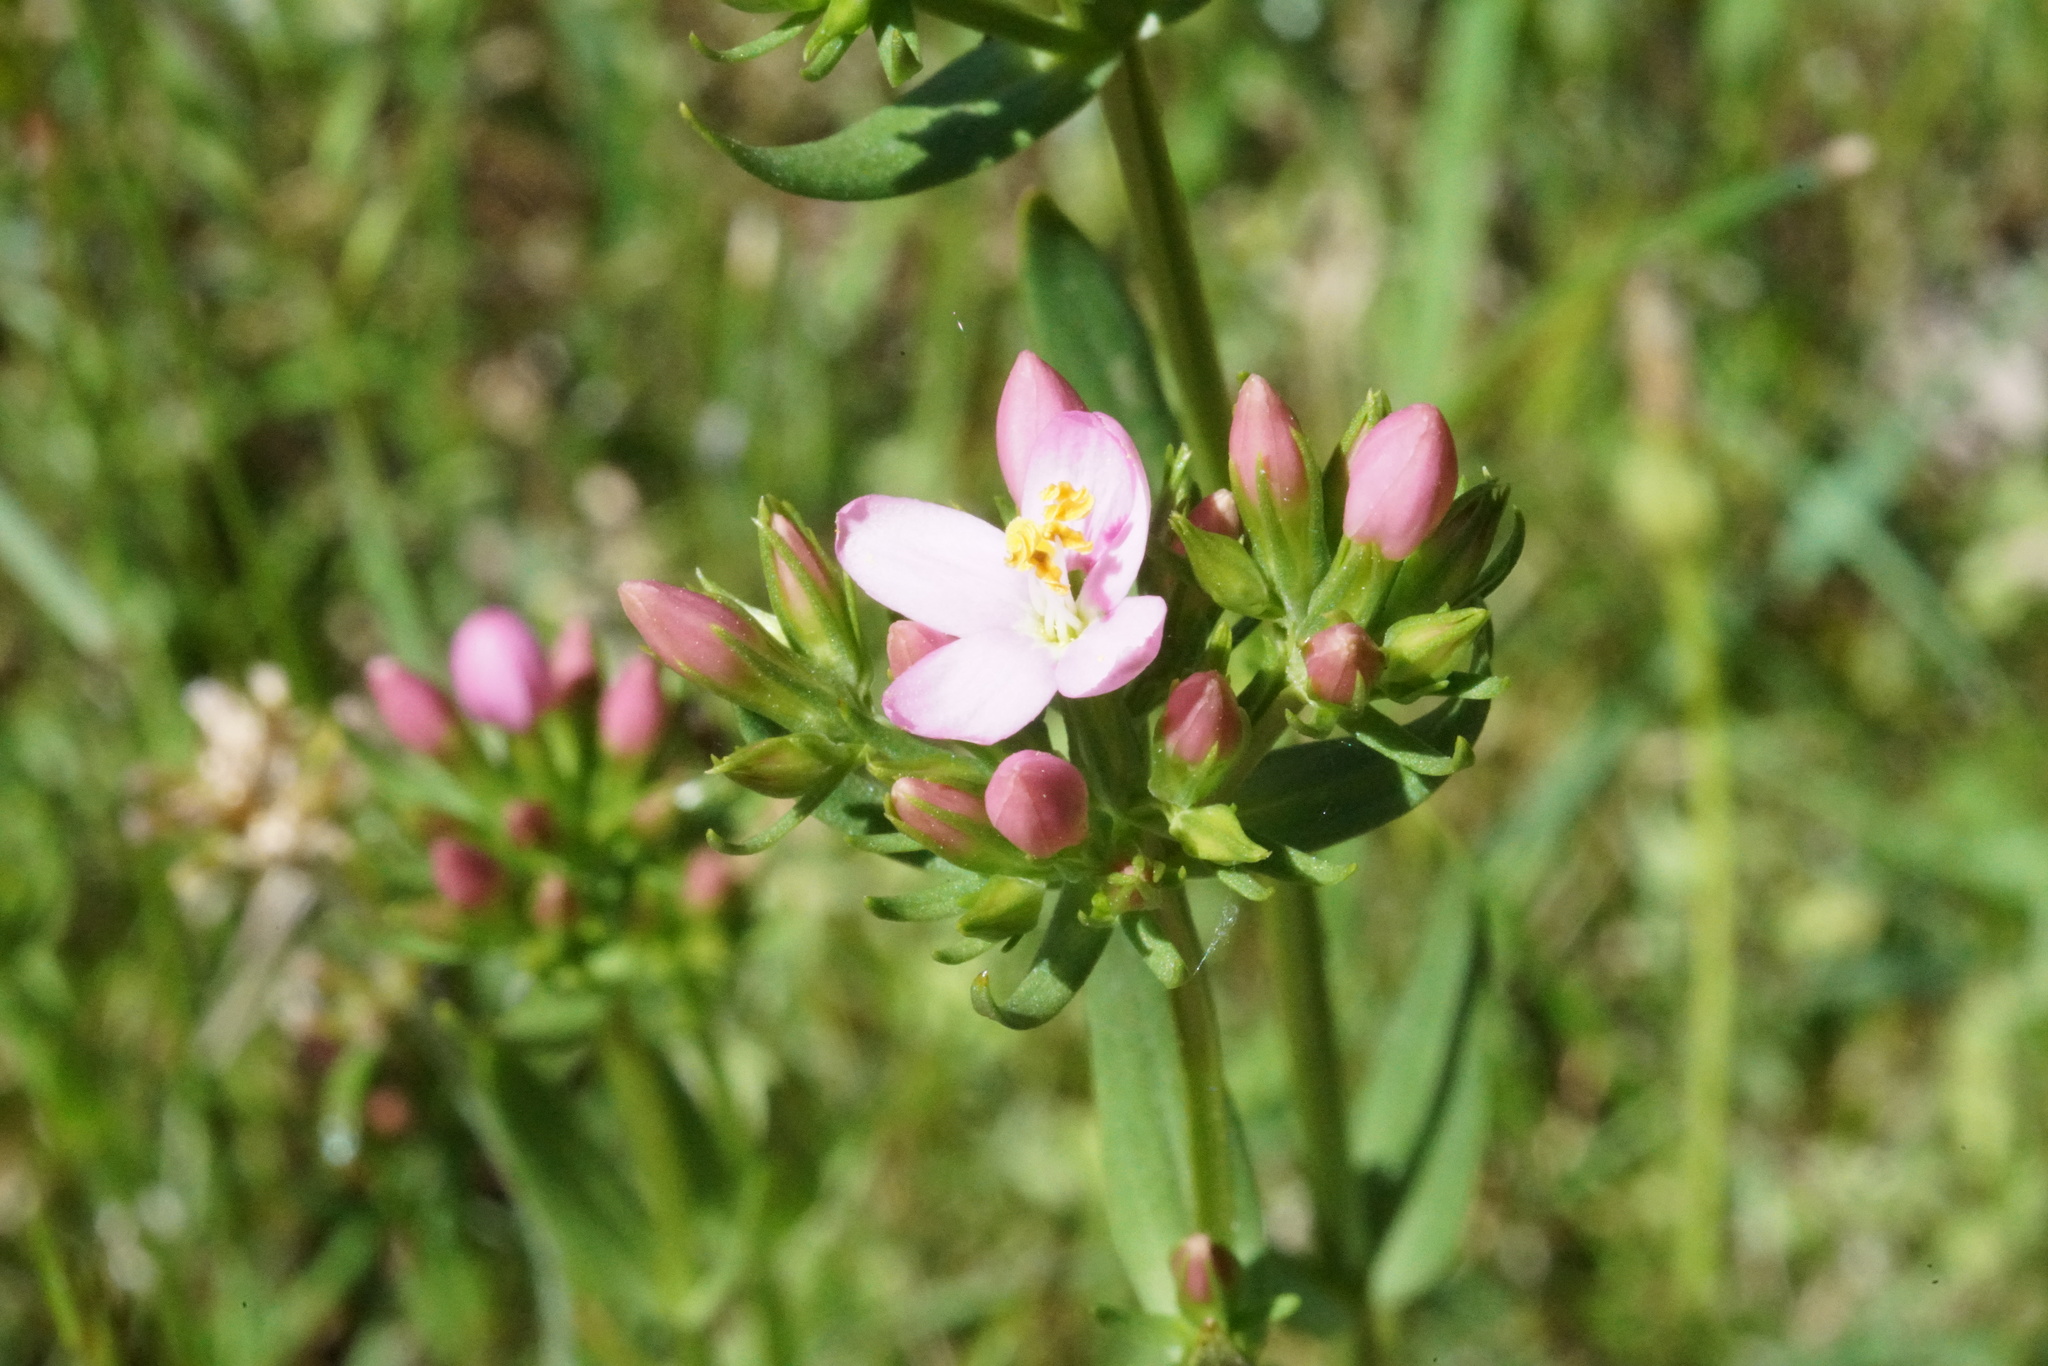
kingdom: Plantae
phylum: Tracheophyta
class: Magnoliopsida
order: Gentianales
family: Gentianaceae
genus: Centaurium
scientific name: Centaurium tenuiflorum
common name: Slender centaury
